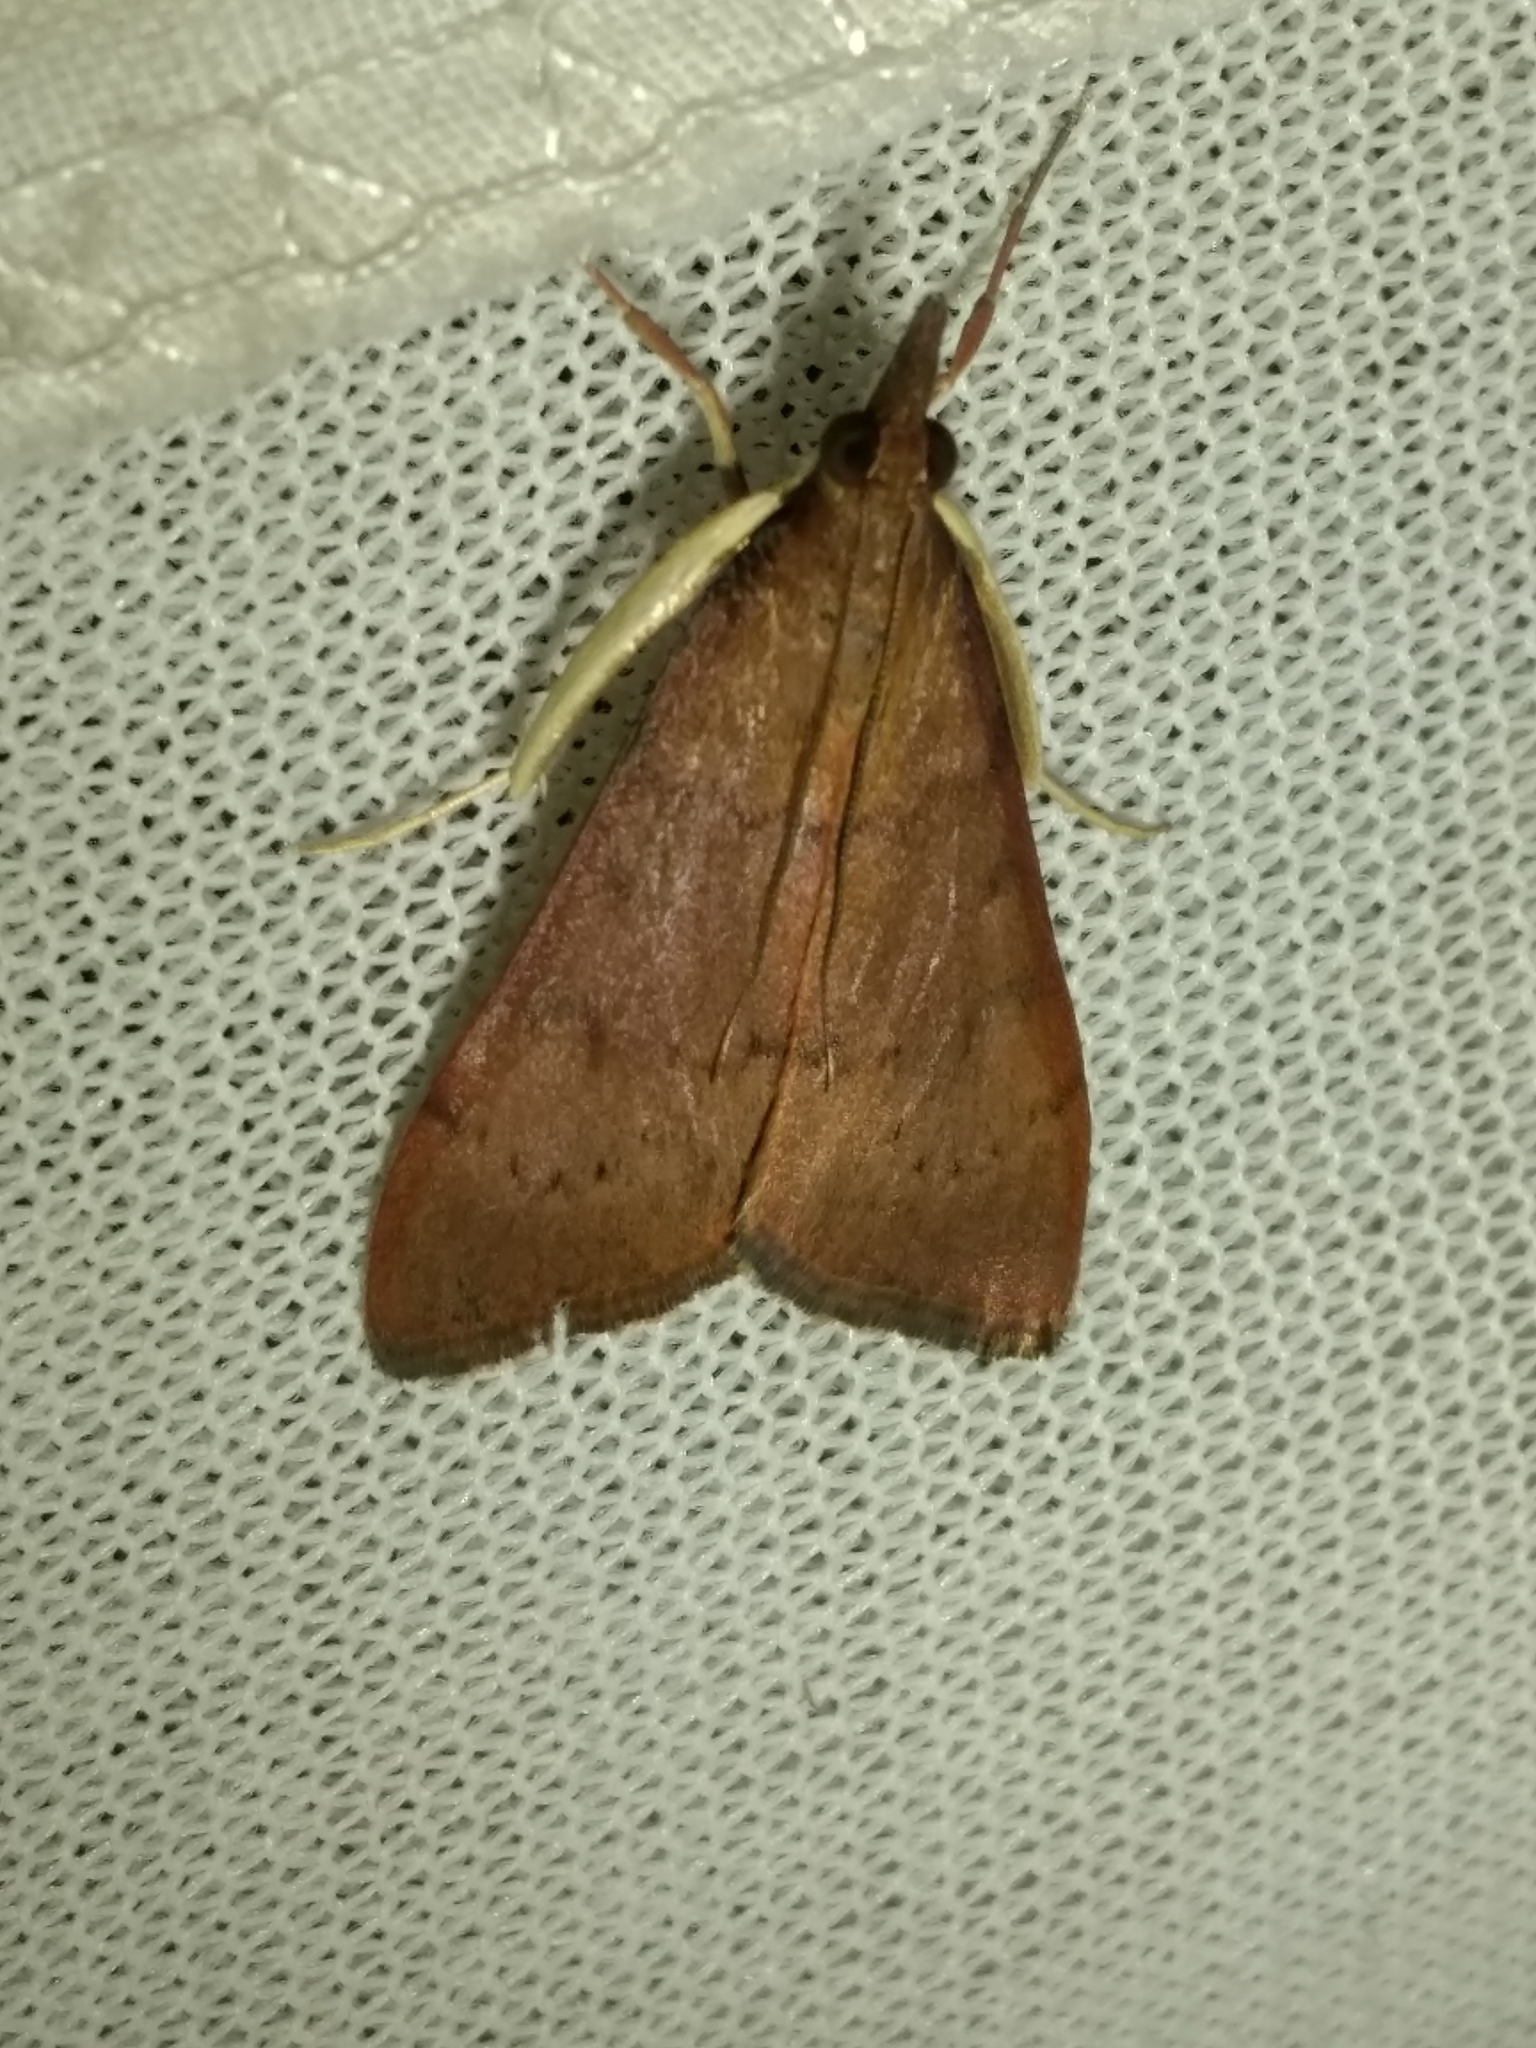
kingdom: Animalia
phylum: Arthropoda
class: Insecta
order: Lepidoptera
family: Crambidae
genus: Uresiphita
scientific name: Uresiphita ornithopteralis
